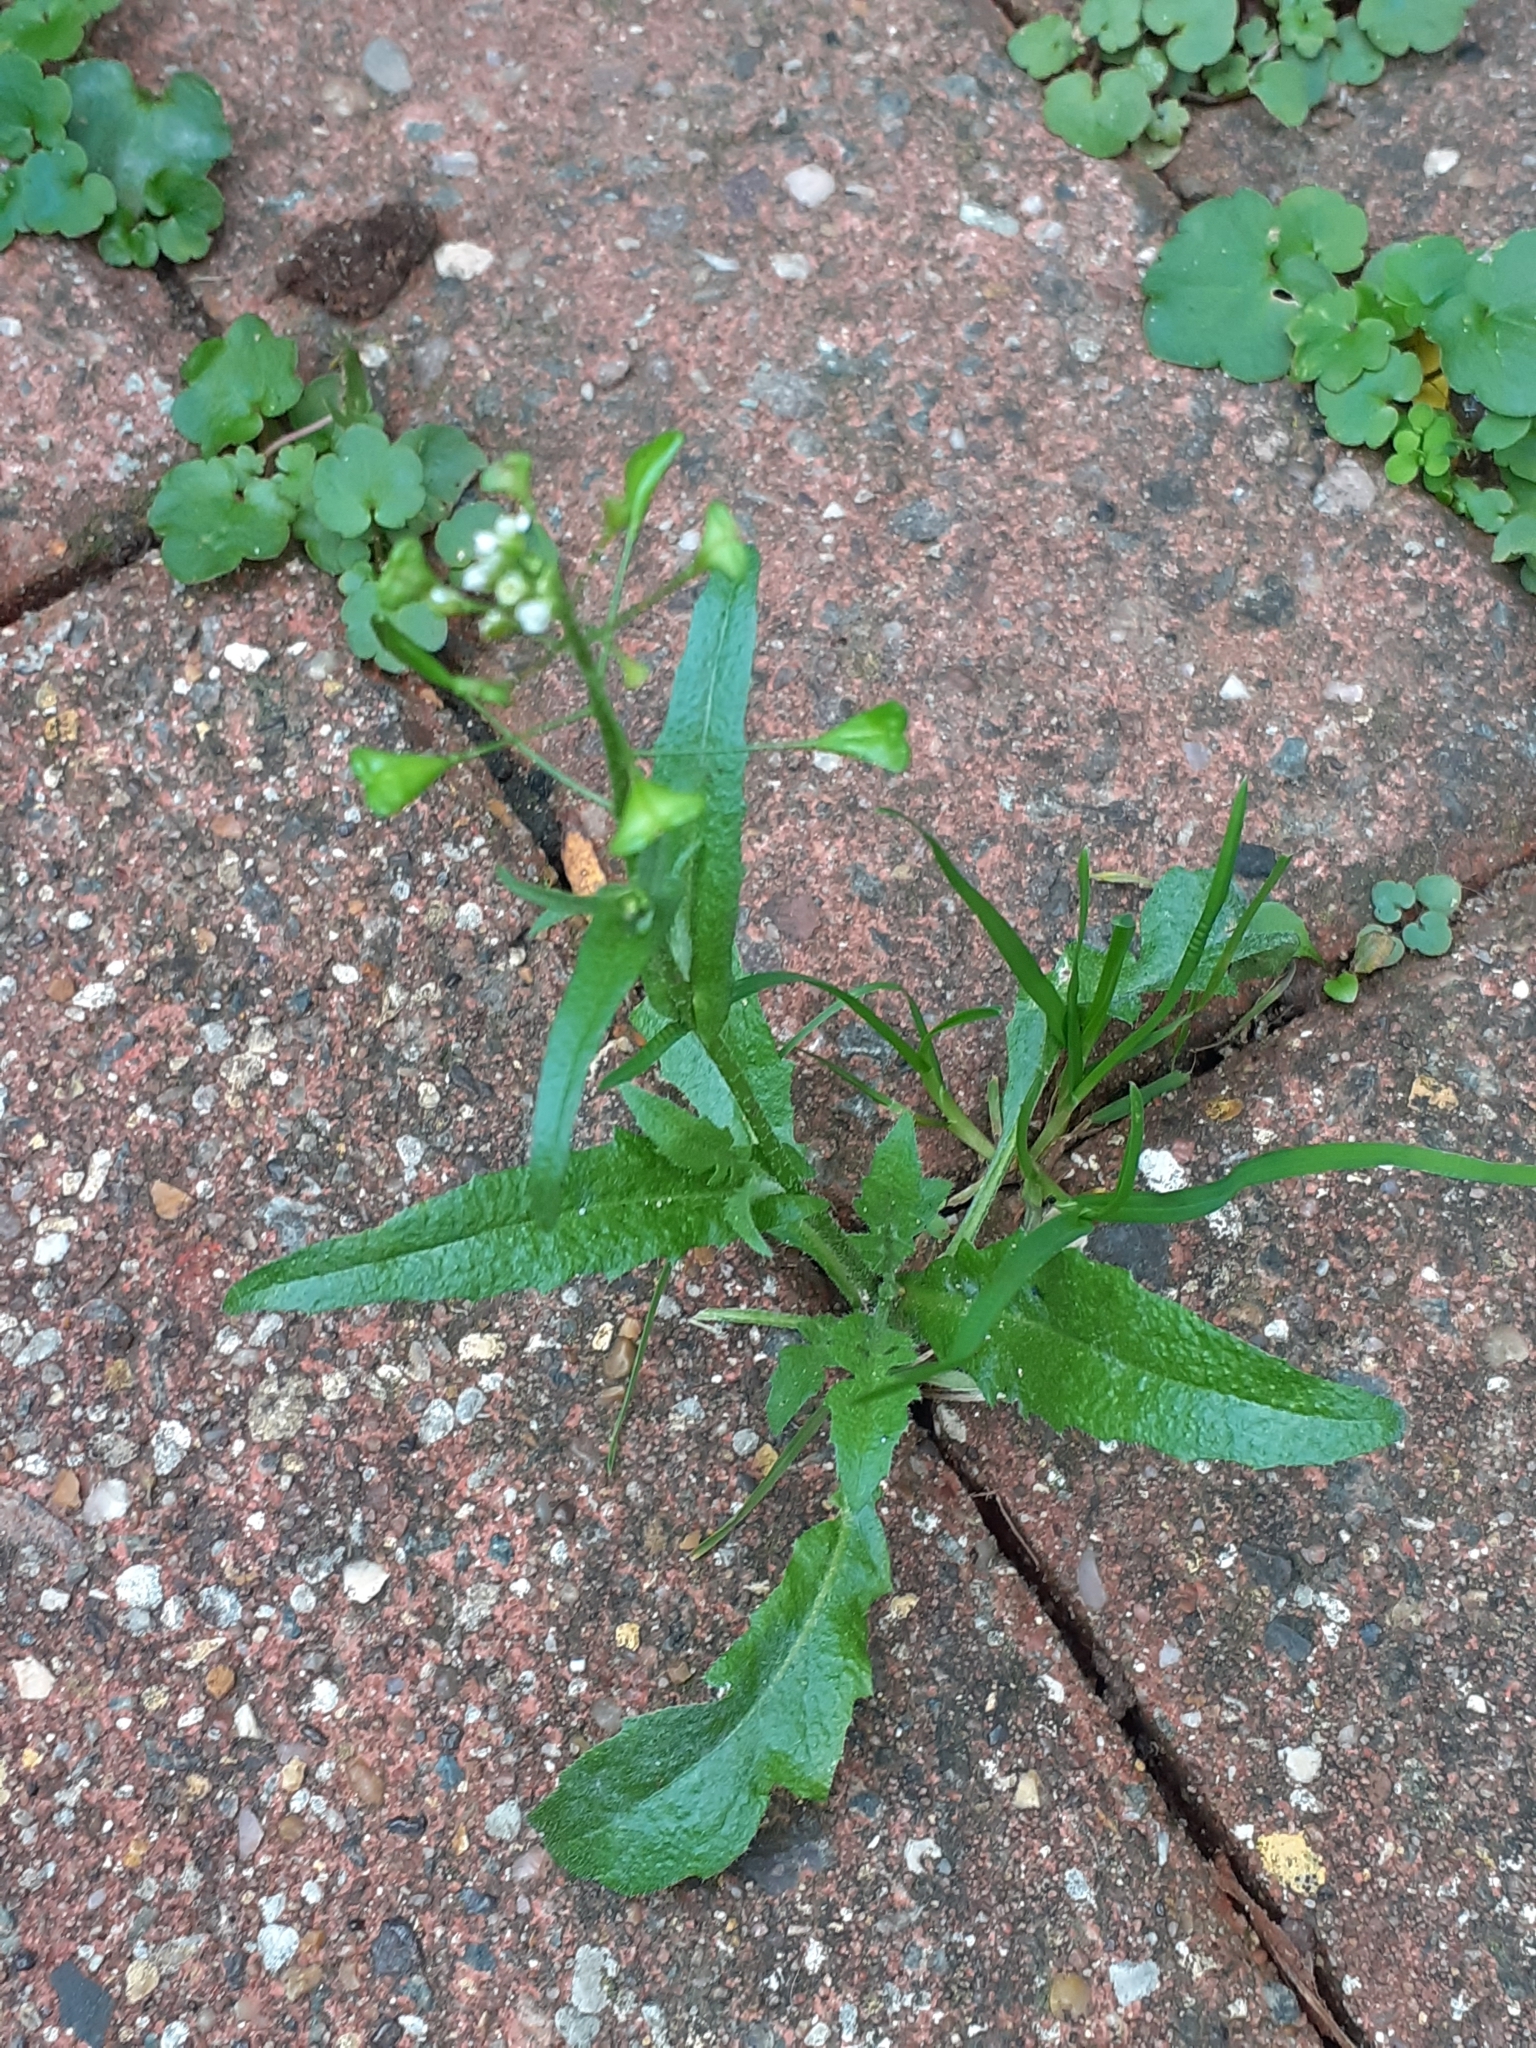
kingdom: Plantae
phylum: Tracheophyta
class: Magnoliopsida
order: Brassicales
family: Brassicaceae
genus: Capsella
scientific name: Capsella bursa-pastoris
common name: Shepherd's purse
